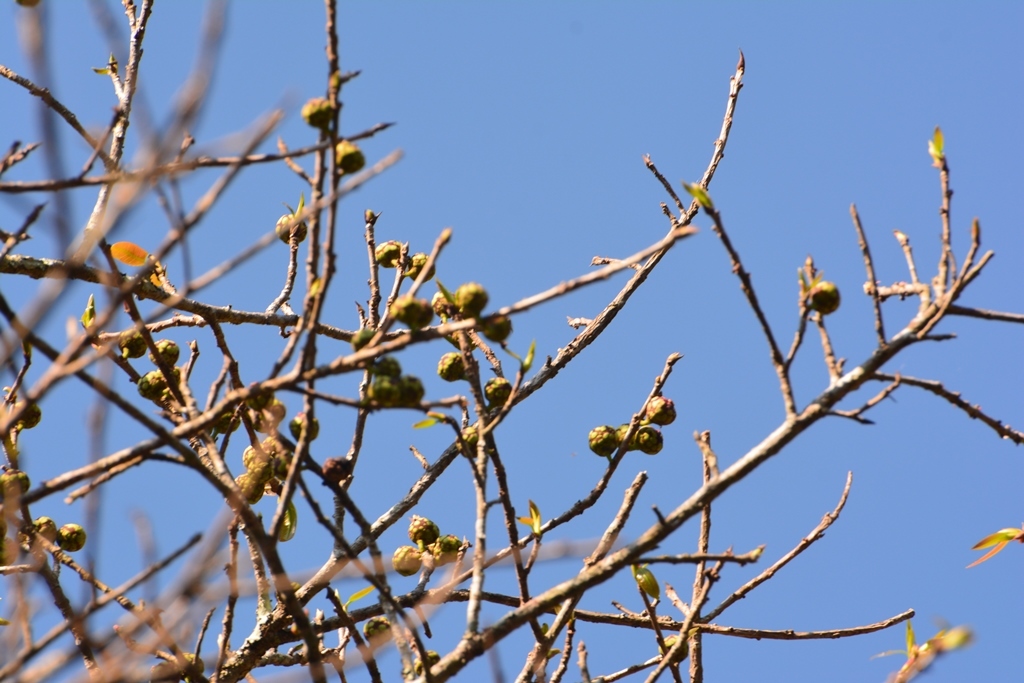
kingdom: Plantae
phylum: Tracheophyta
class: Magnoliopsida
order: Rosales
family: Moraceae
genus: Ficus
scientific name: Ficus pertusa
